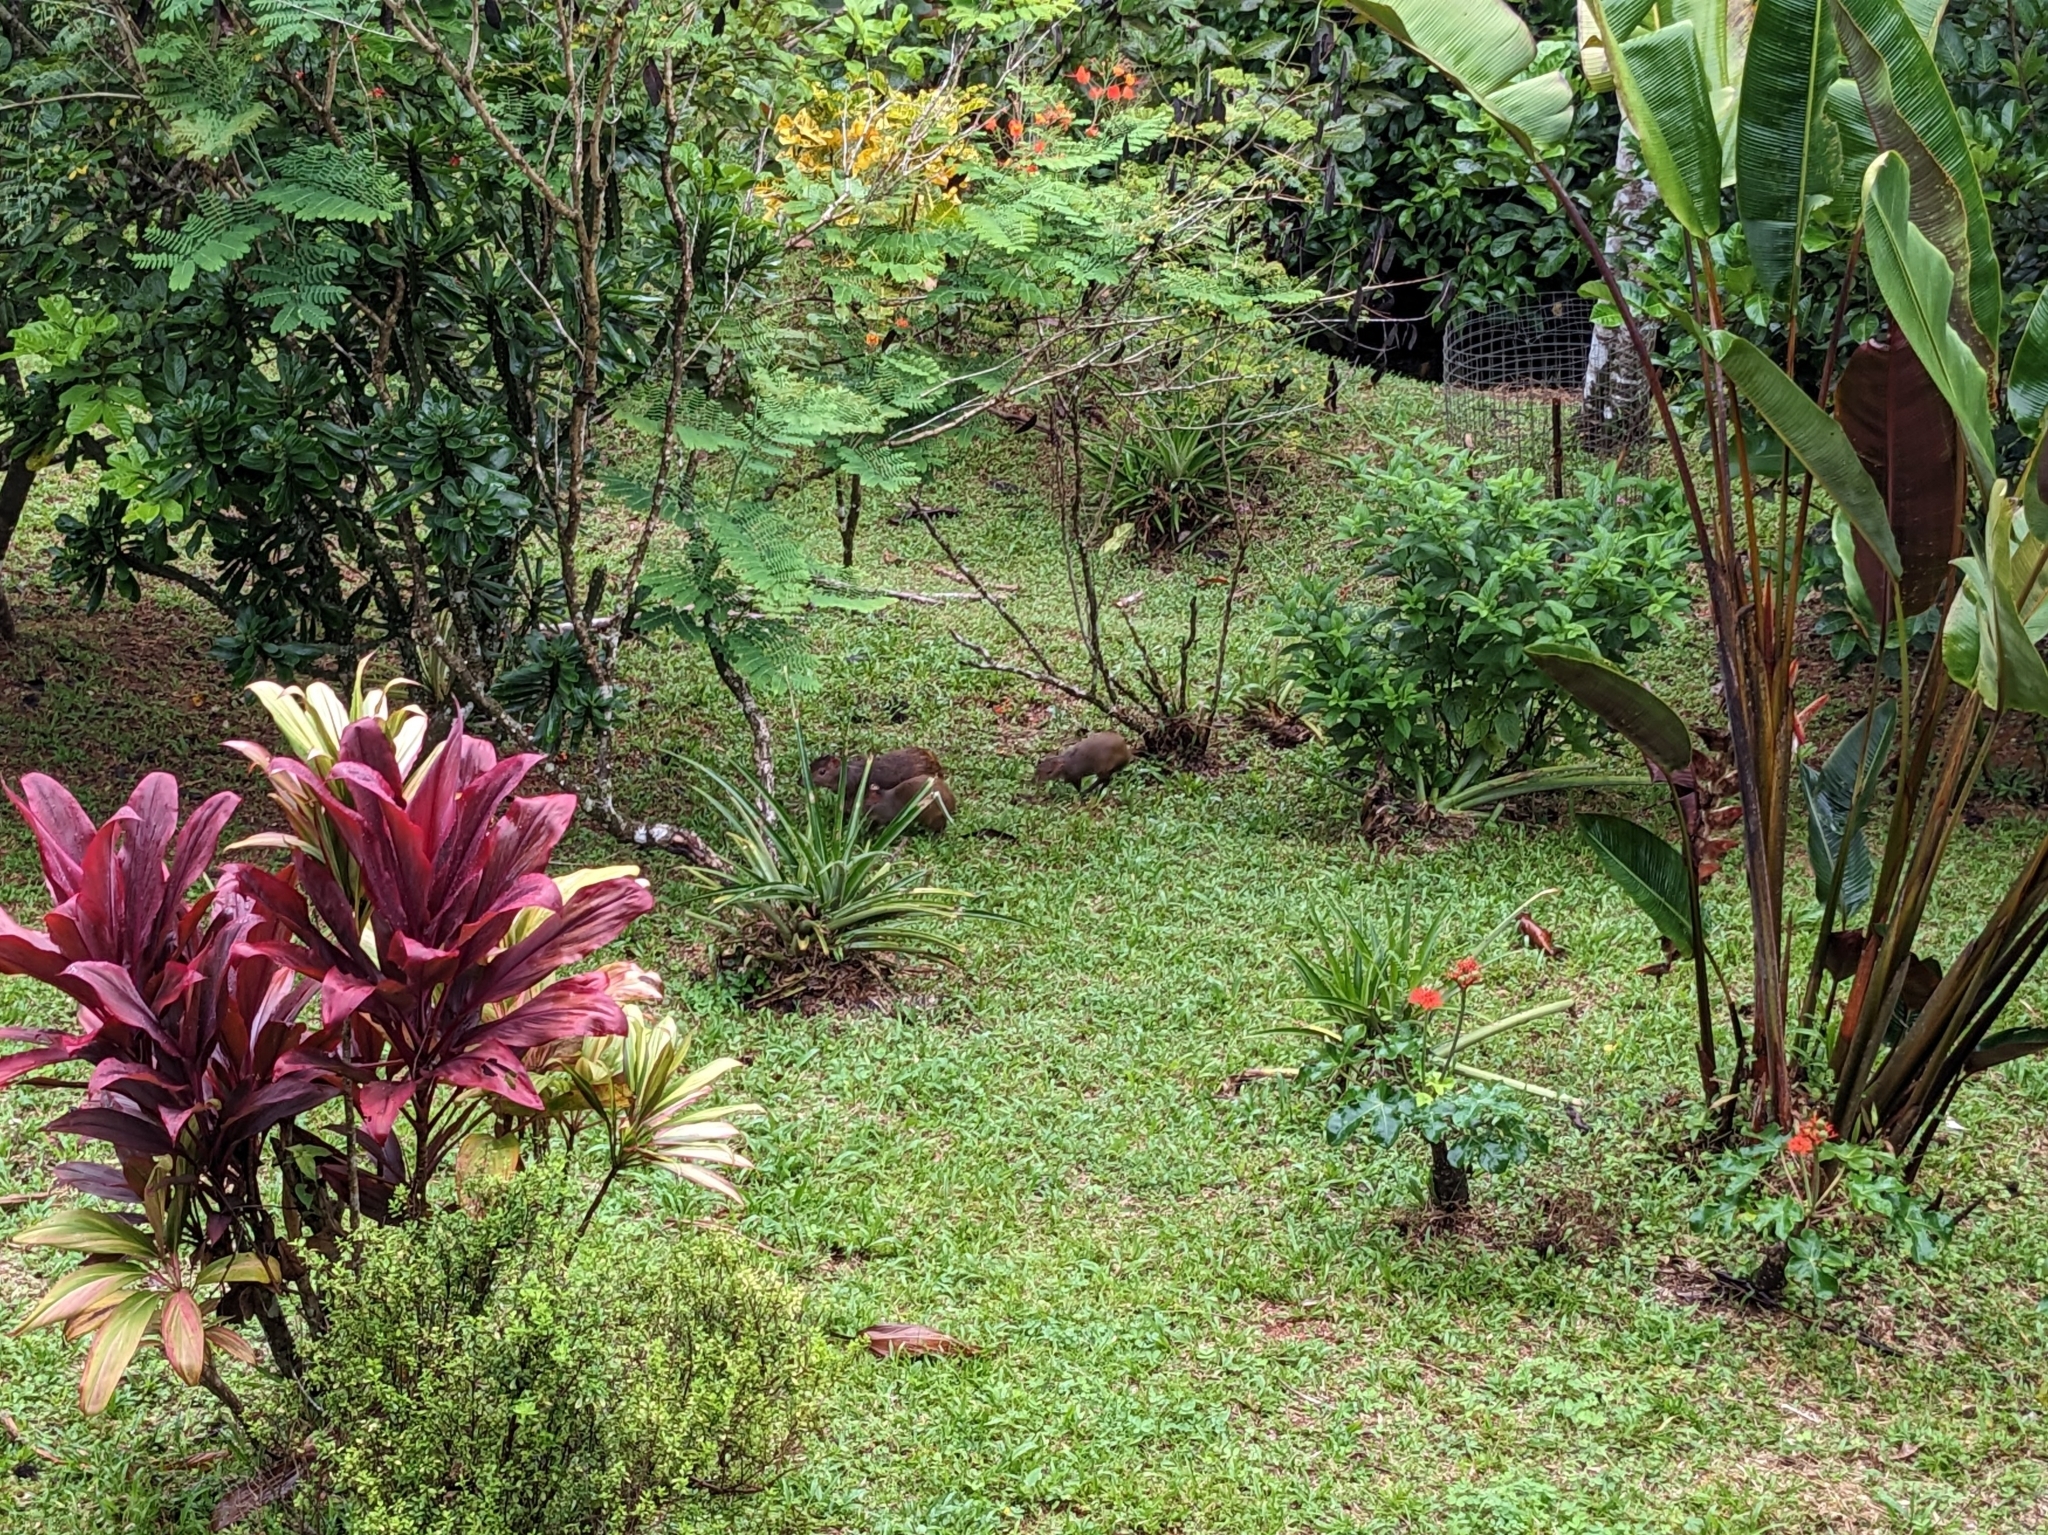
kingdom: Animalia
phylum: Chordata
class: Mammalia
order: Rodentia
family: Dasyproctidae
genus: Dasyprocta
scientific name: Dasyprocta punctata
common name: Central american agouti
